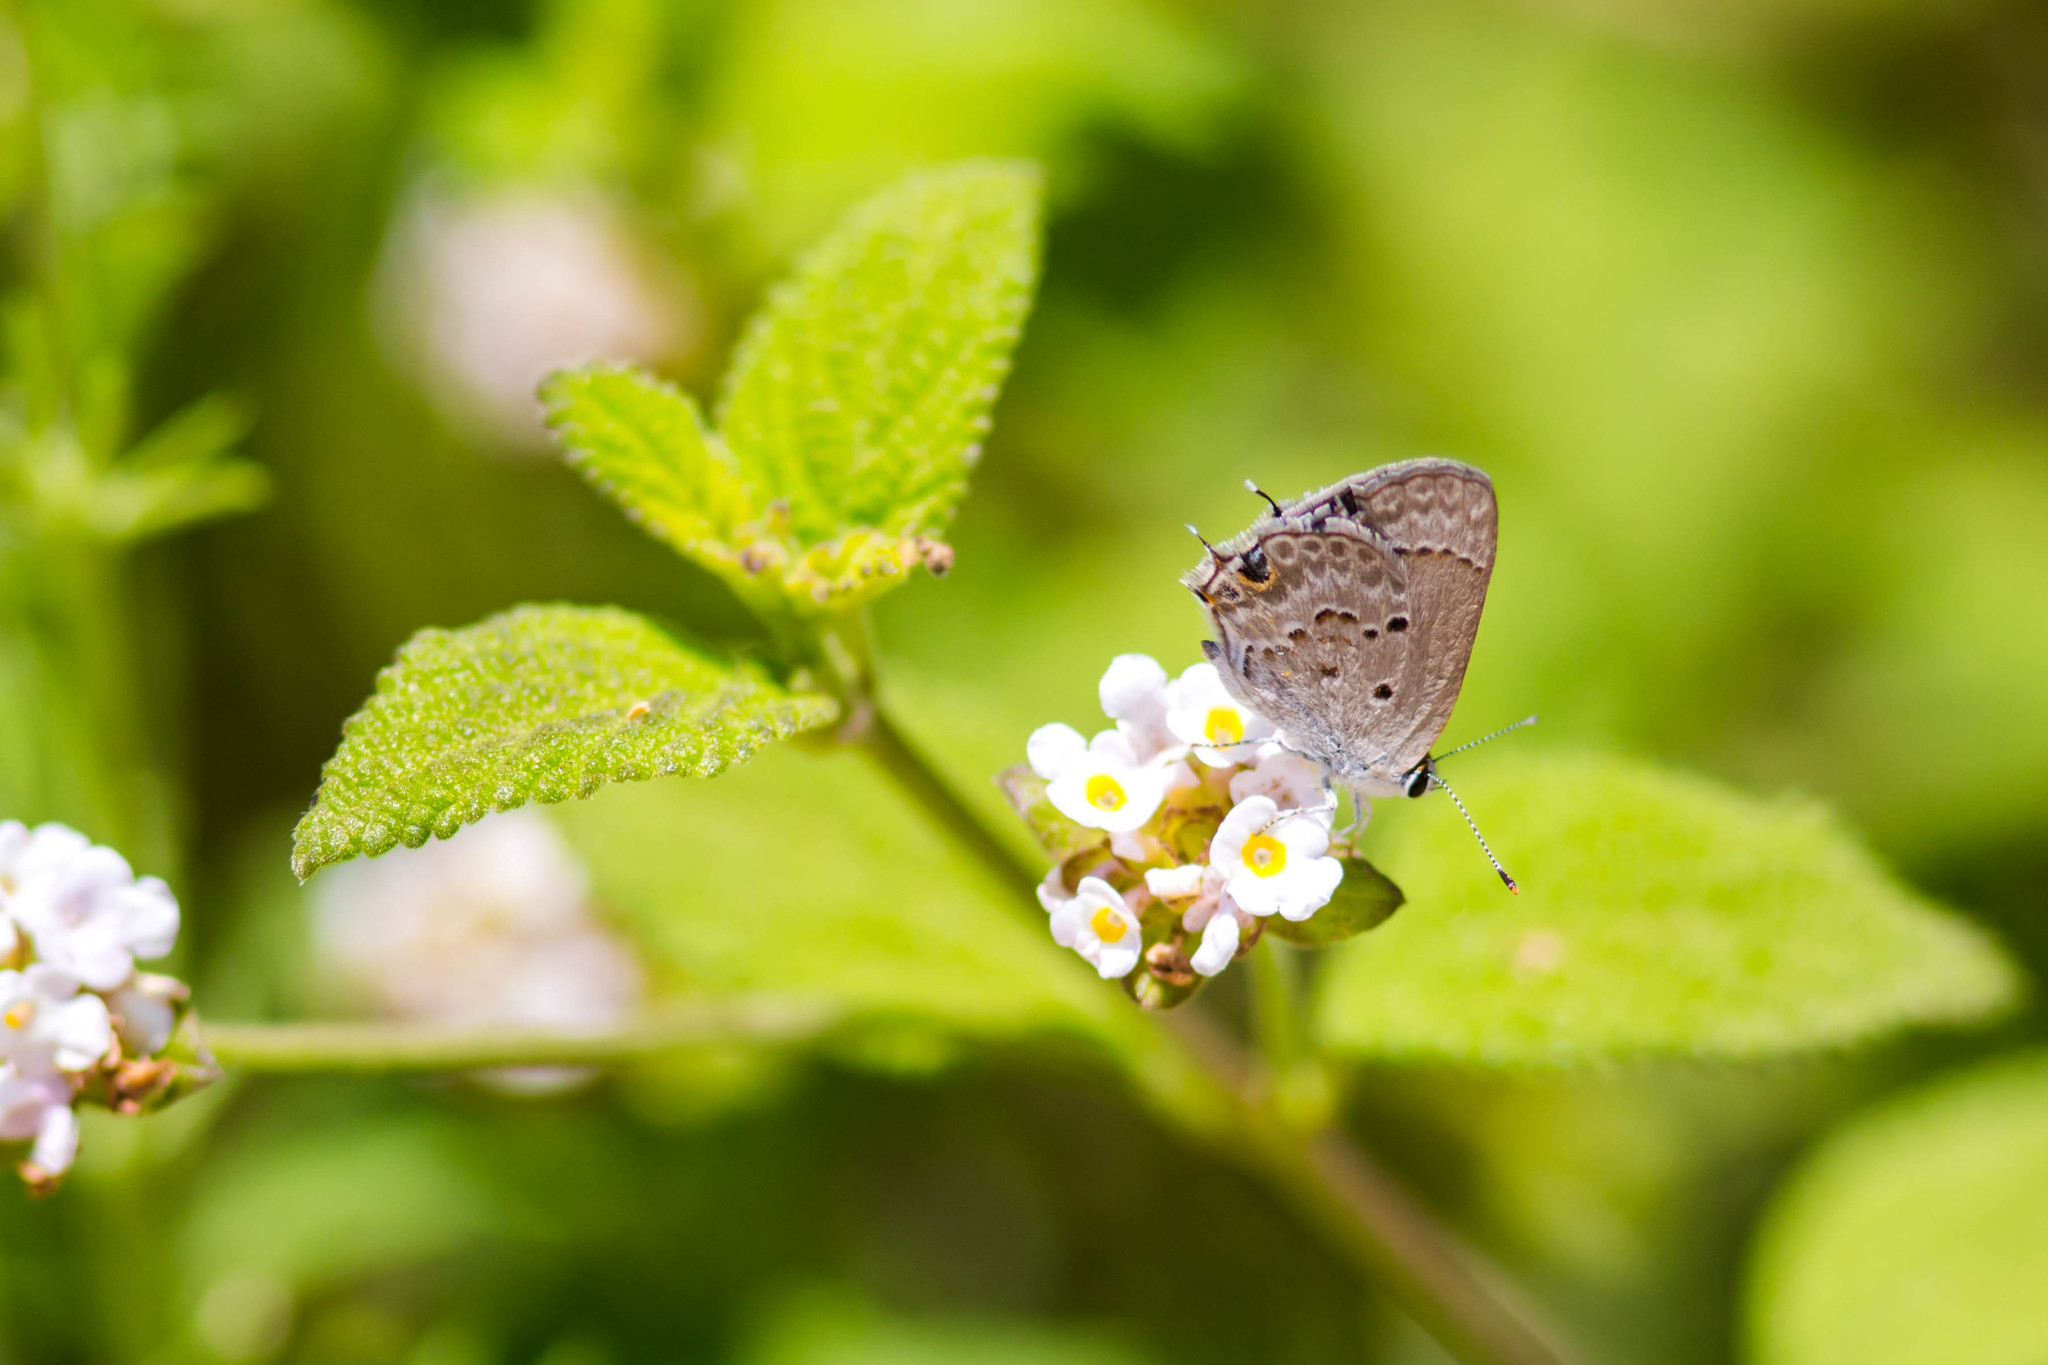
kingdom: Animalia
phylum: Arthropoda
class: Insecta
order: Lepidoptera
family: Lycaenidae
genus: Callicista
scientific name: Callicista columella
